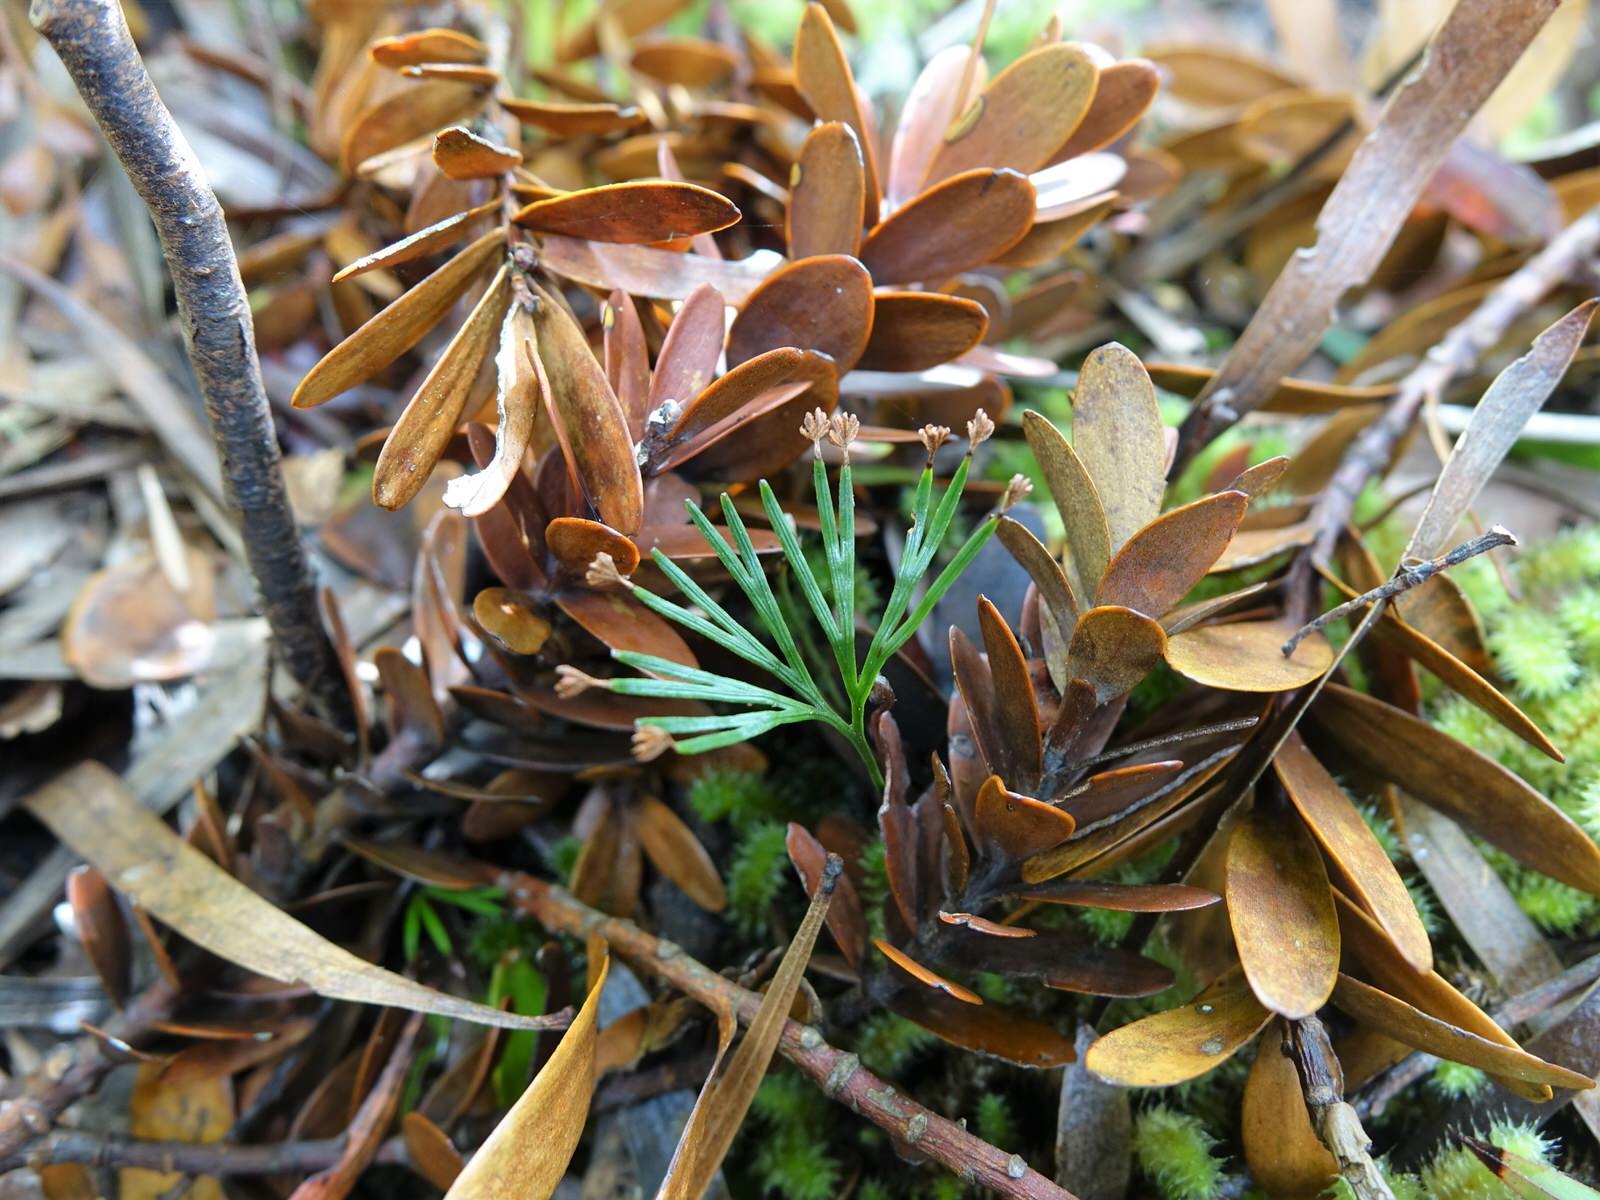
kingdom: Plantae
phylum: Tracheophyta
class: Polypodiopsida
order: Schizaeales
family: Schizaeaceae
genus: Schizaea
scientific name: Schizaea dichotoma
